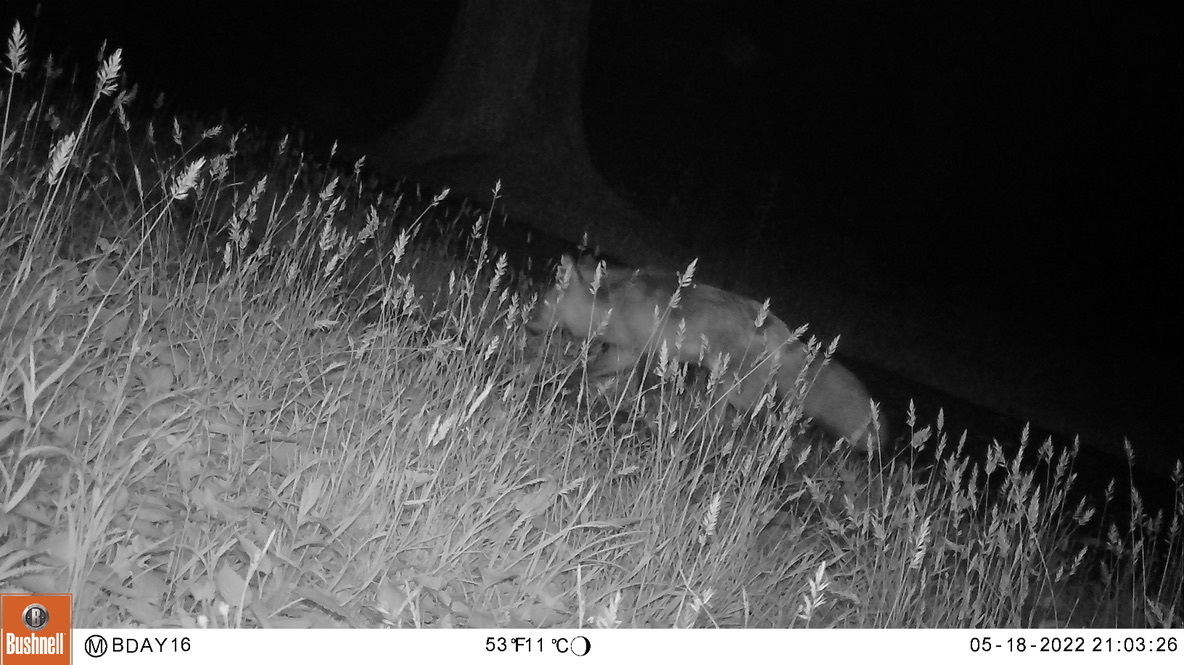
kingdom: Animalia
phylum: Chordata
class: Mammalia
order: Carnivora
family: Canidae
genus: Vulpes
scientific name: Vulpes vulpes
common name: Red fox
